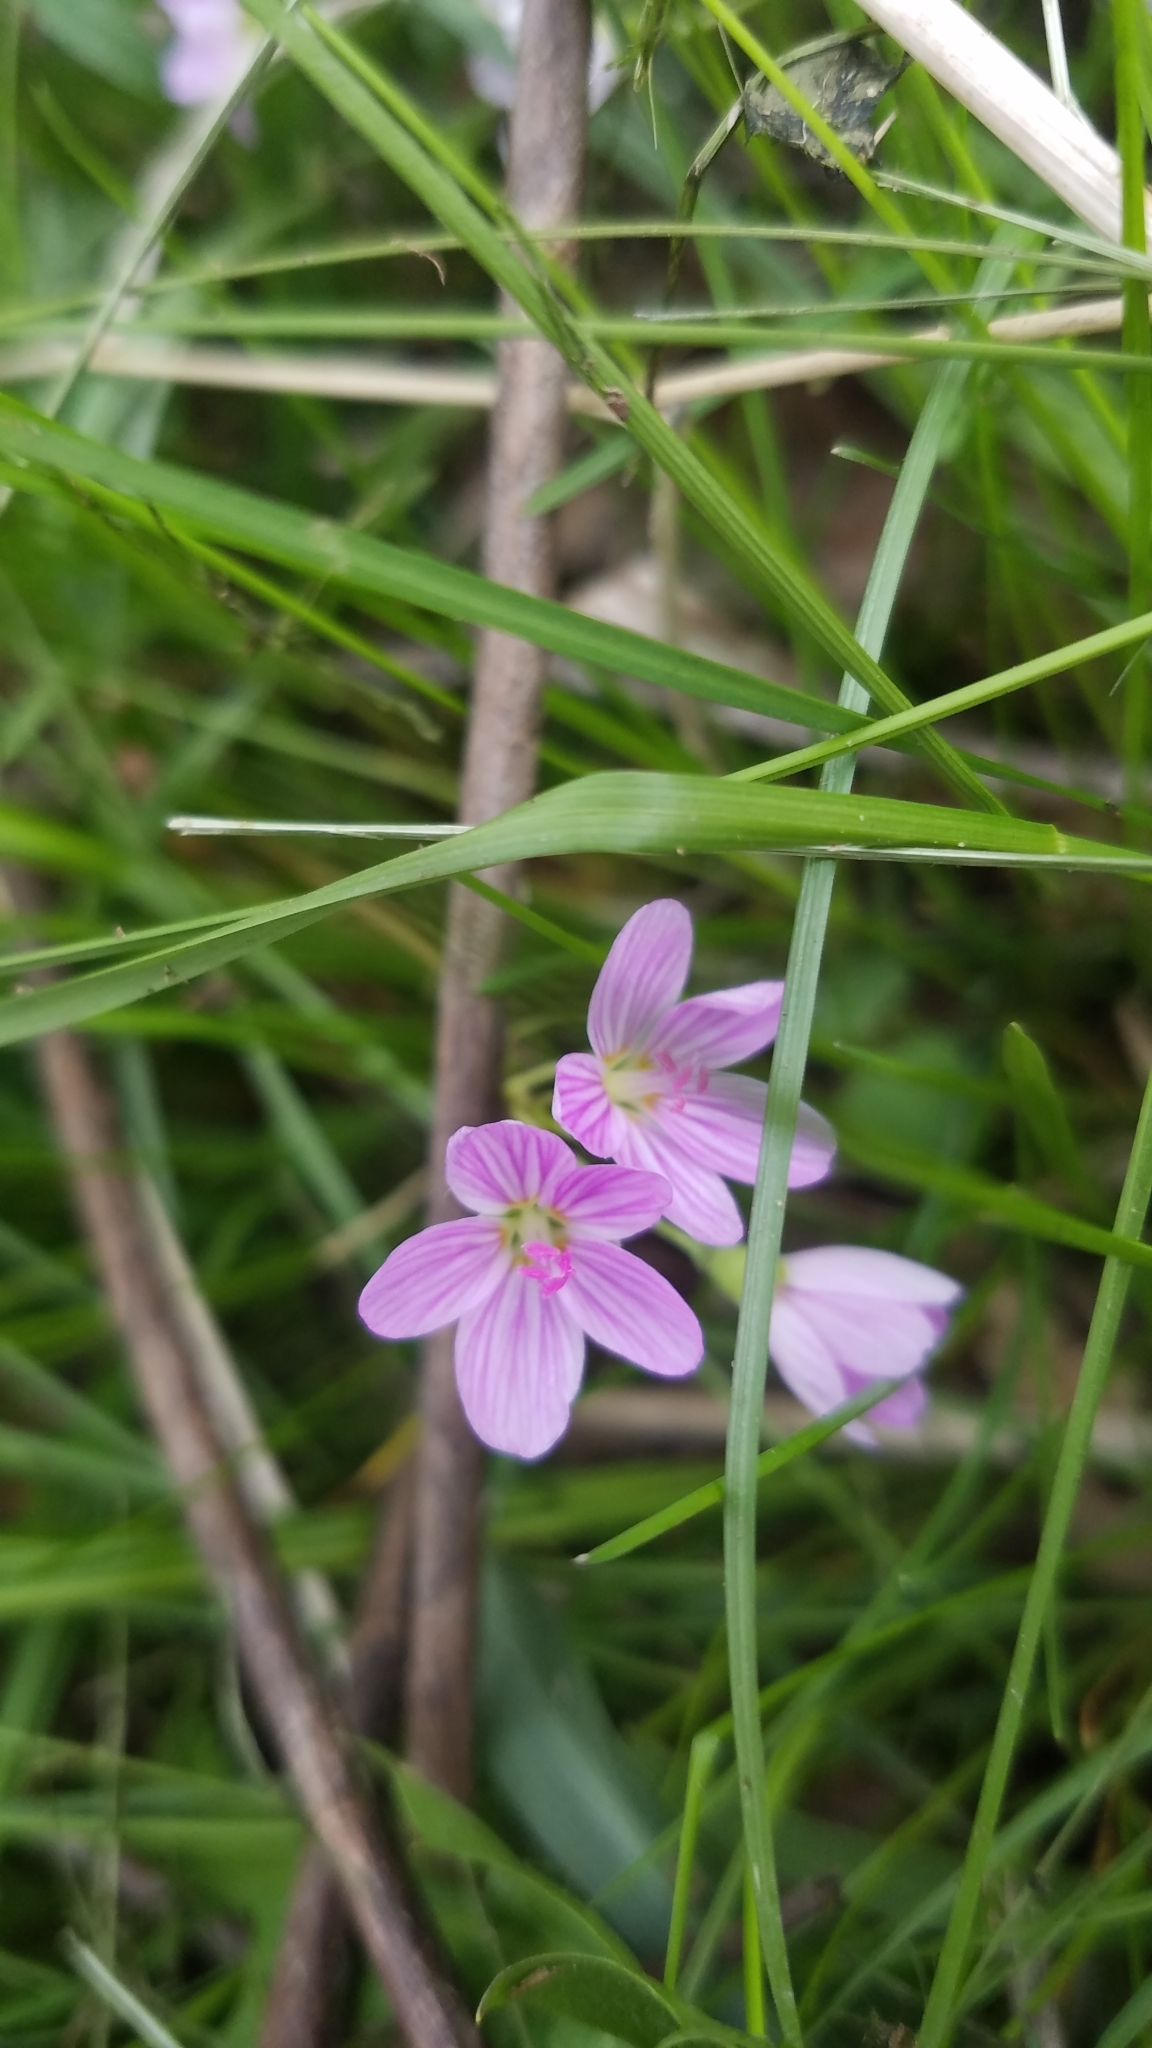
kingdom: Plantae
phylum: Tracheophyta
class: Magnoliopsida
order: Caryophyllales
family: Montiaceae
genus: Claytonia
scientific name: Claytonia virginica
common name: Virginia springbeauty
